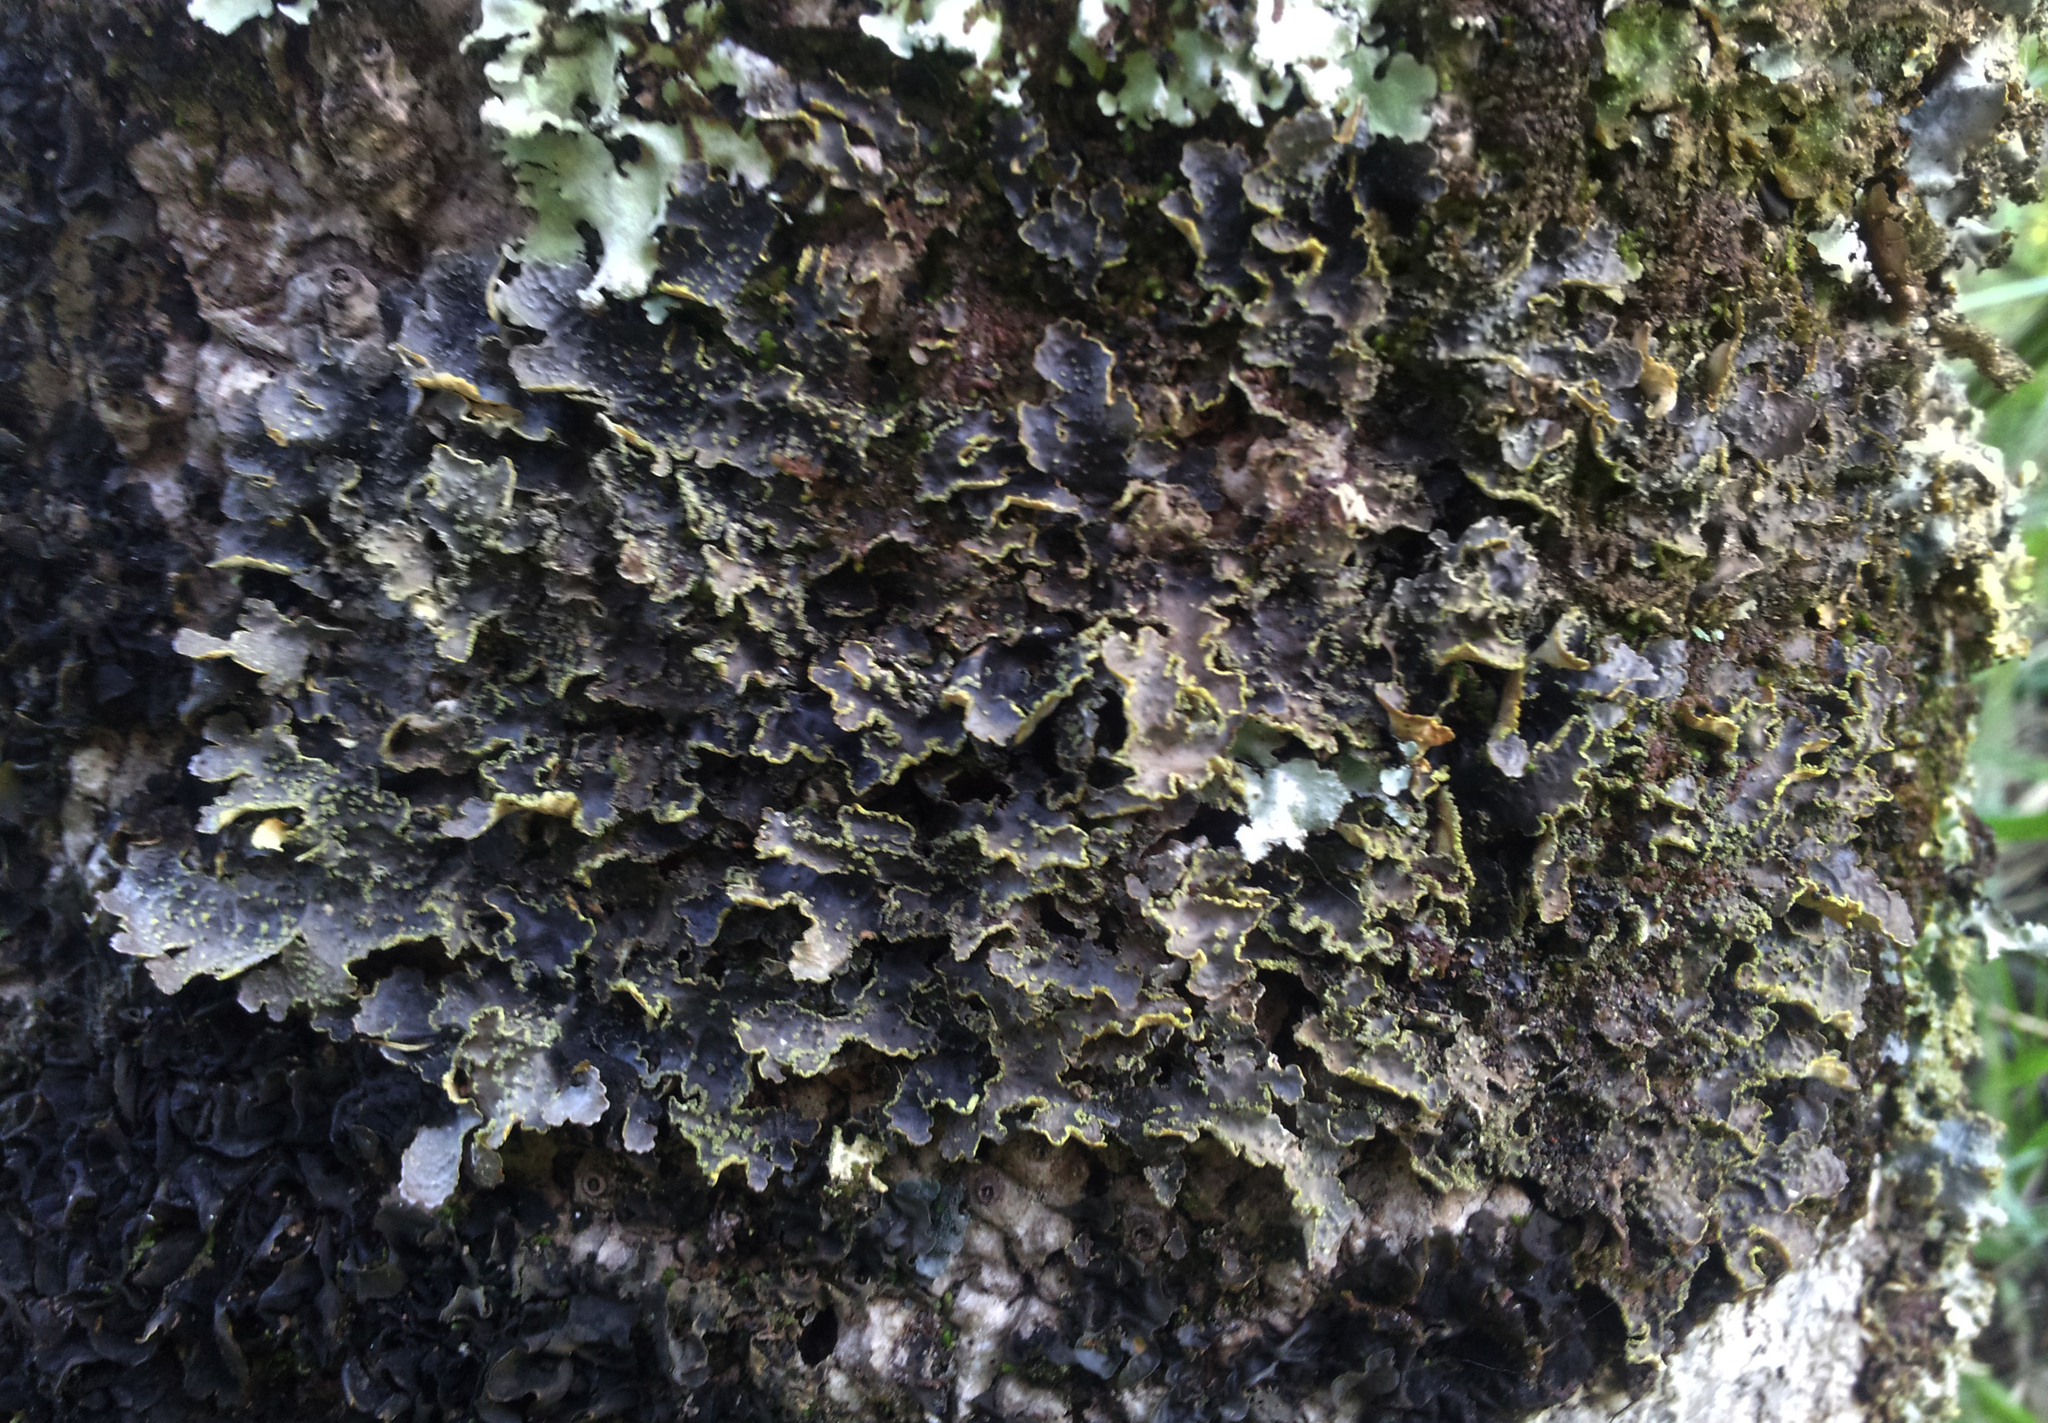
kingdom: Fungi
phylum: Ascomycota
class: Lecanoromycetes
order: Peltigerales
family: Lobariaceae
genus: Pseudocyphellaria
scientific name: Pseudocyphellaria crocata
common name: Golden specklebelly
